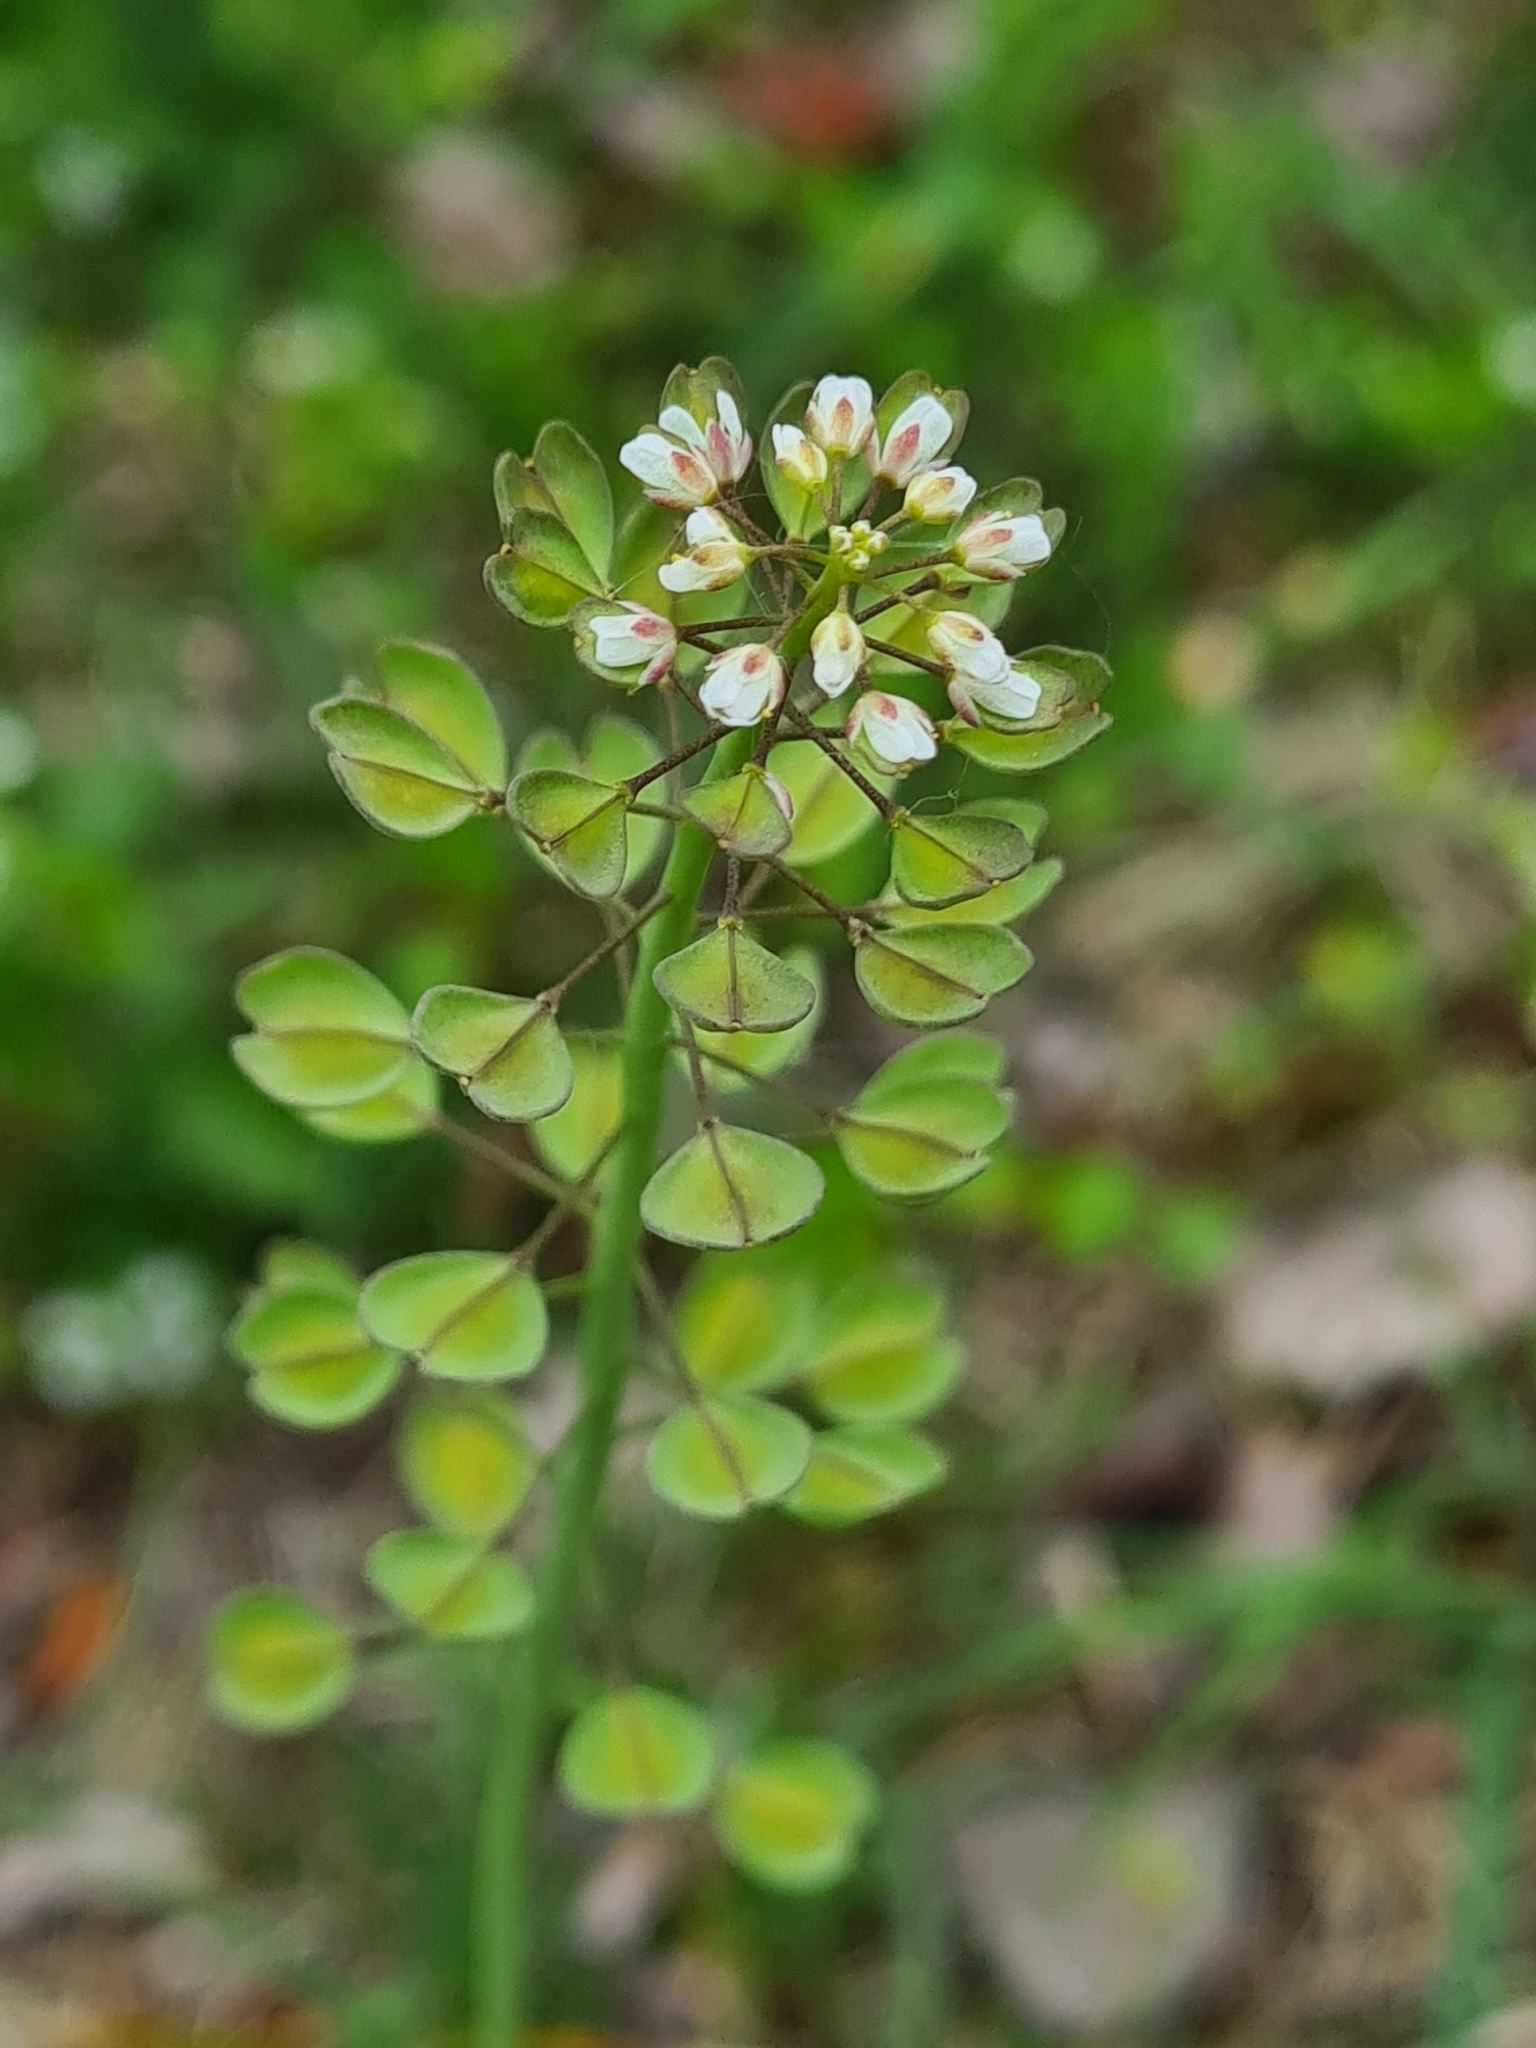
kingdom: Plantae
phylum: Tracheophyta
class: Magnoliopsida
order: Brassicales
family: Brassicaceae
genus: Noccaea
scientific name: Noccaea perfoliata
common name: Perfoliate pennycress
